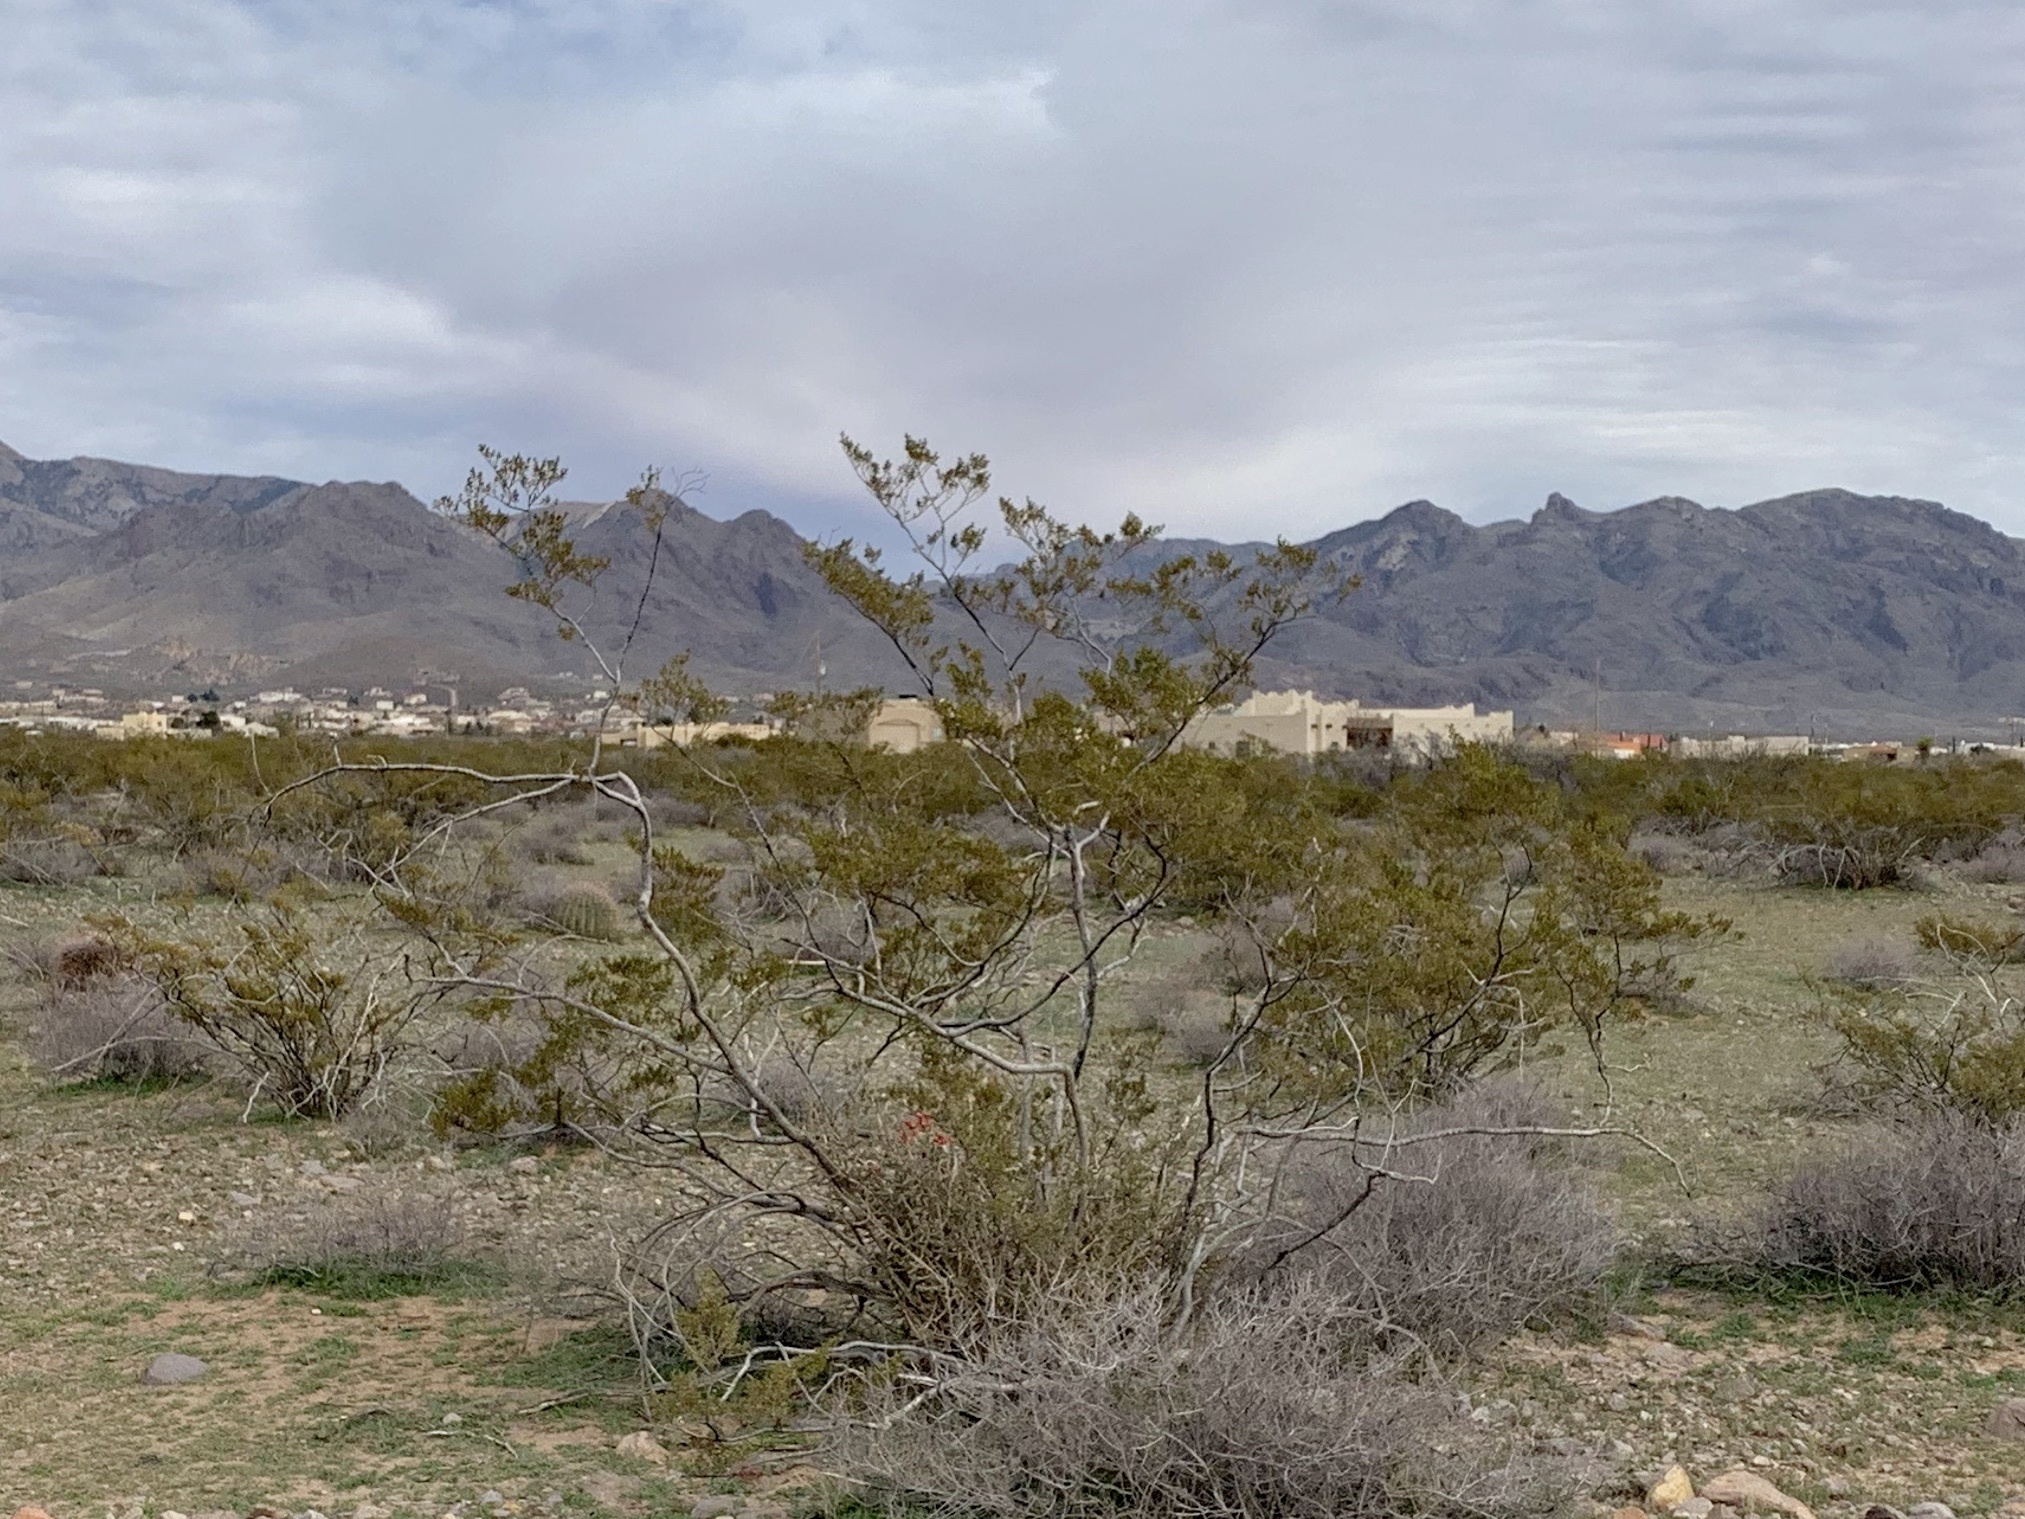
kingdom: Plantae
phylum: Tracheophyta
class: Magnoliopsida
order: Zygophyllales
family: Zygophyllaceae
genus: Larrea
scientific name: Larrea tridentata
